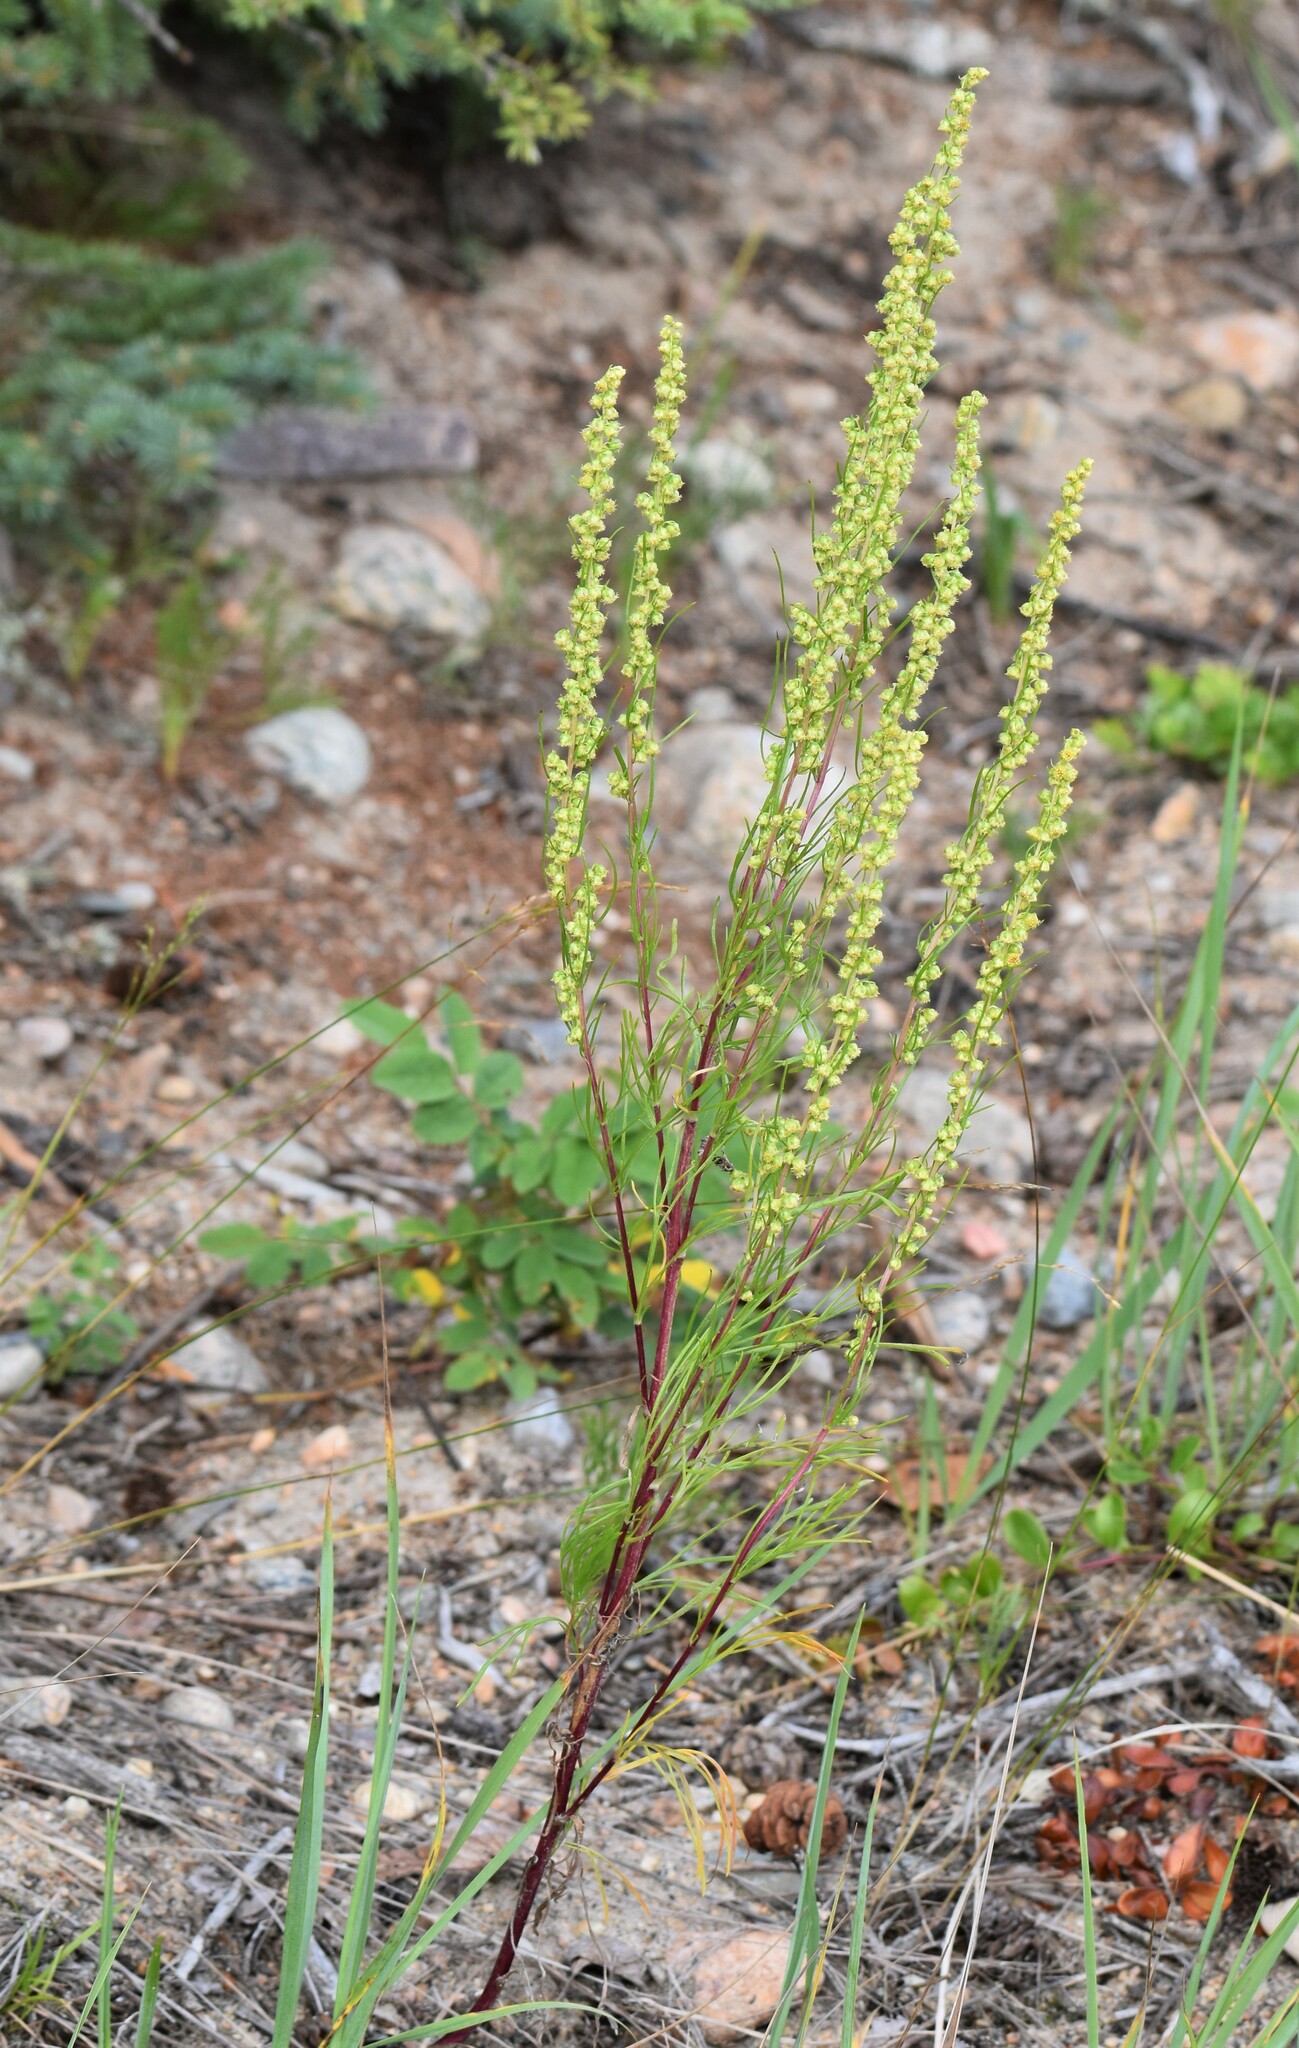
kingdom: Plantae
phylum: Tracheophyta
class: Magnoliopsida
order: Asterales
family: Asteraceae
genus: Artemisia
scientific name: Artemisia campestris
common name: Field wormwood
